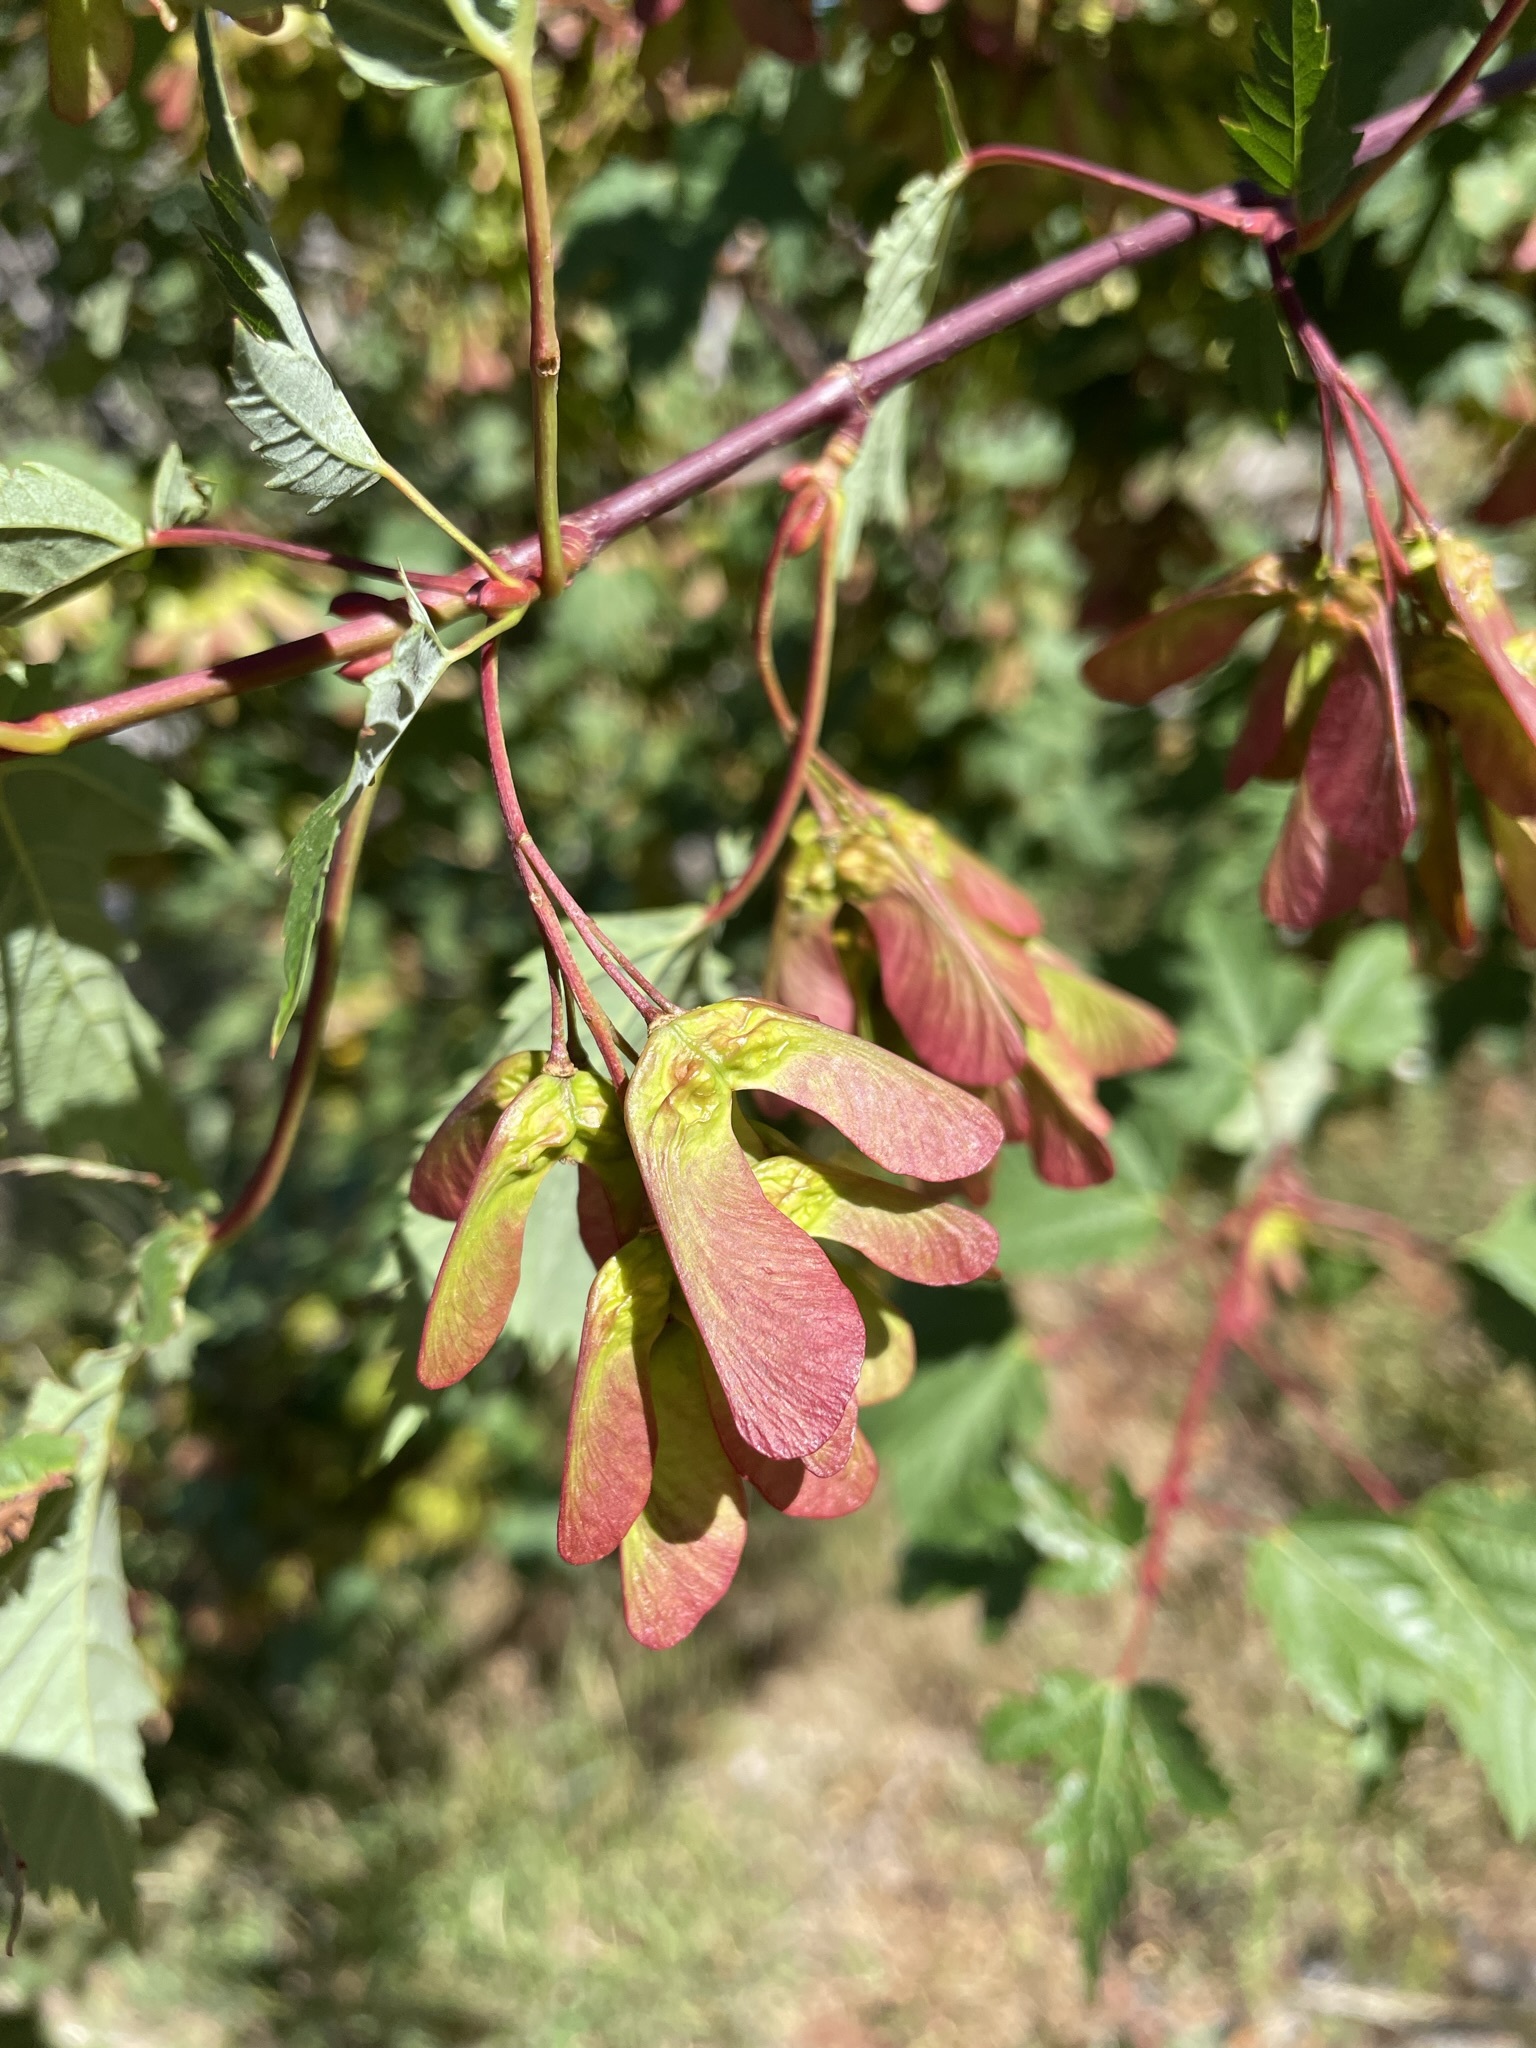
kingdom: Plantae
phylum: Tracheophyta
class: Magnoliopsida
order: Sapindales
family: Sapindaceae
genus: Acer
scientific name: Acer glabrum
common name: Rocky mountain maple
